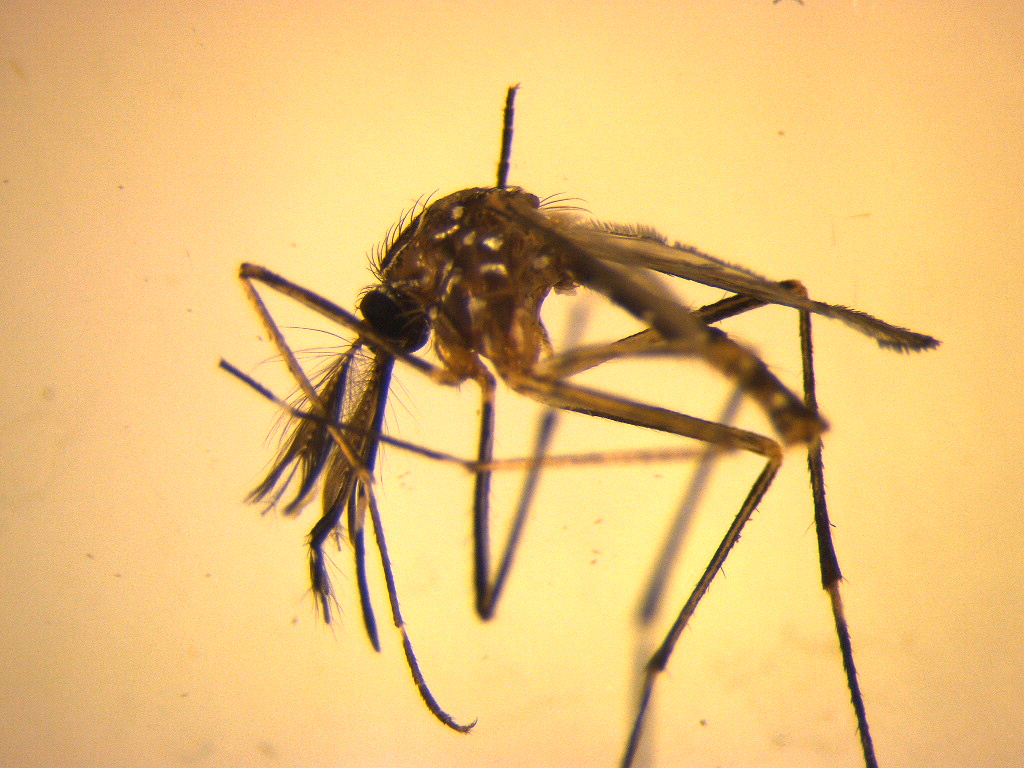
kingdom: Animalia
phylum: Arthropoda
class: Insecta
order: Diptera
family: Culicidae
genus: Aedes
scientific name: Aedes notoscriptus
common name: Australian backyard mosquito
